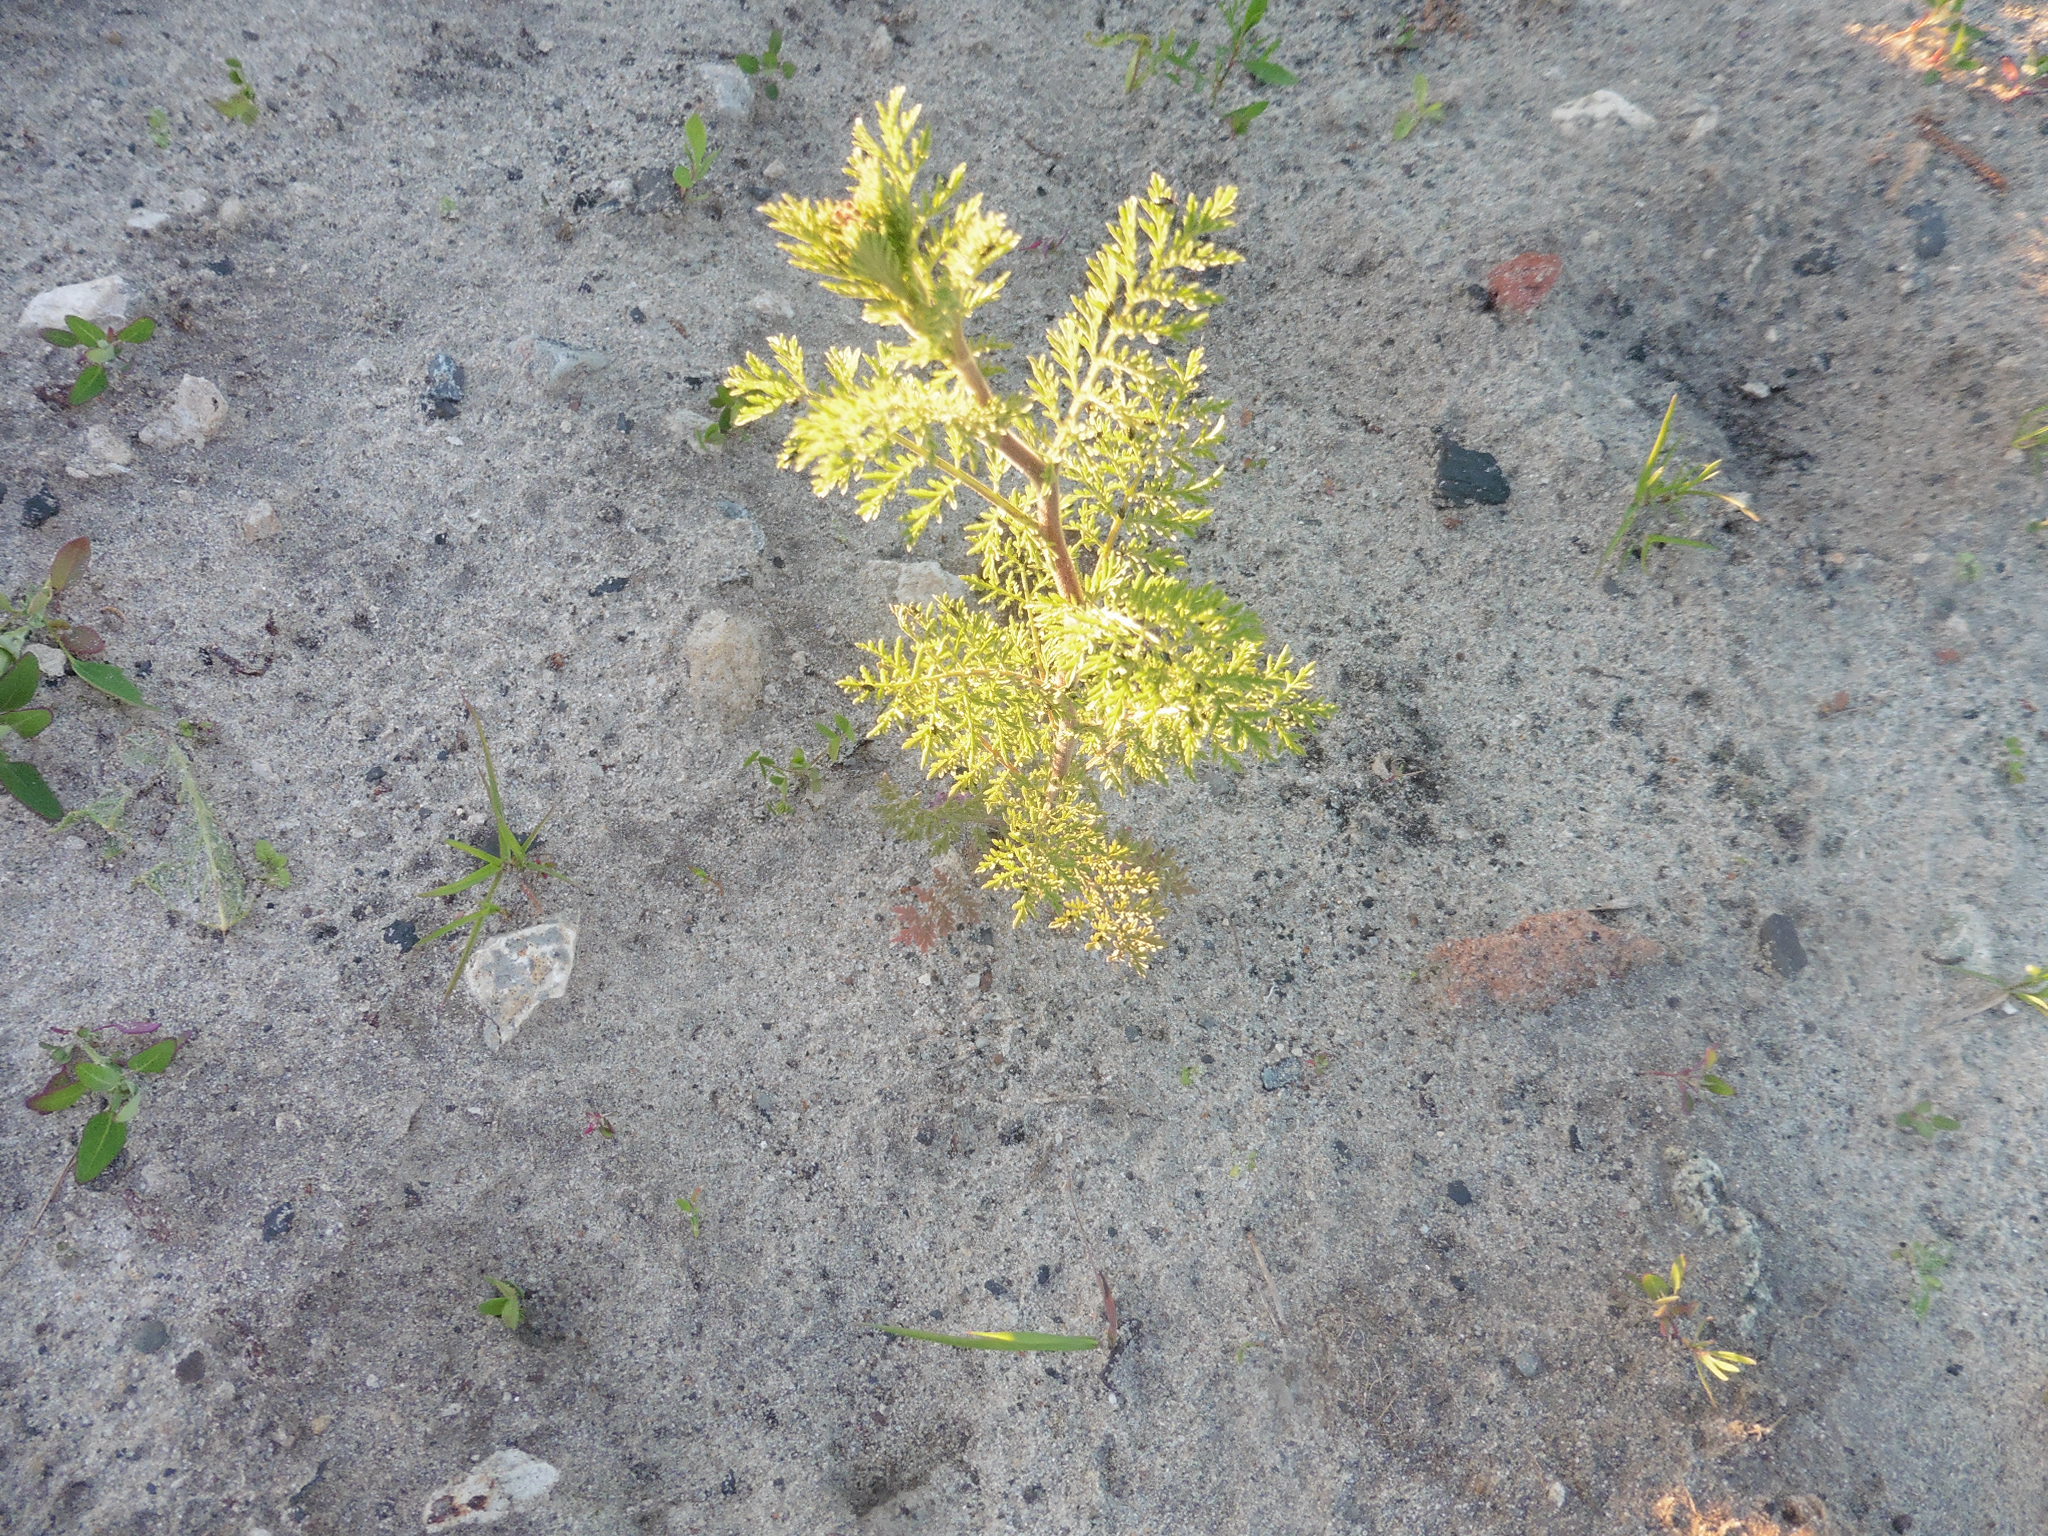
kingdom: Plantae
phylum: Tracheophyta
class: Magnoliopsida
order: Brassicales
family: Brassicaceae
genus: Descurainia
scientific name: Descurainia sophia
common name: Flixweed
